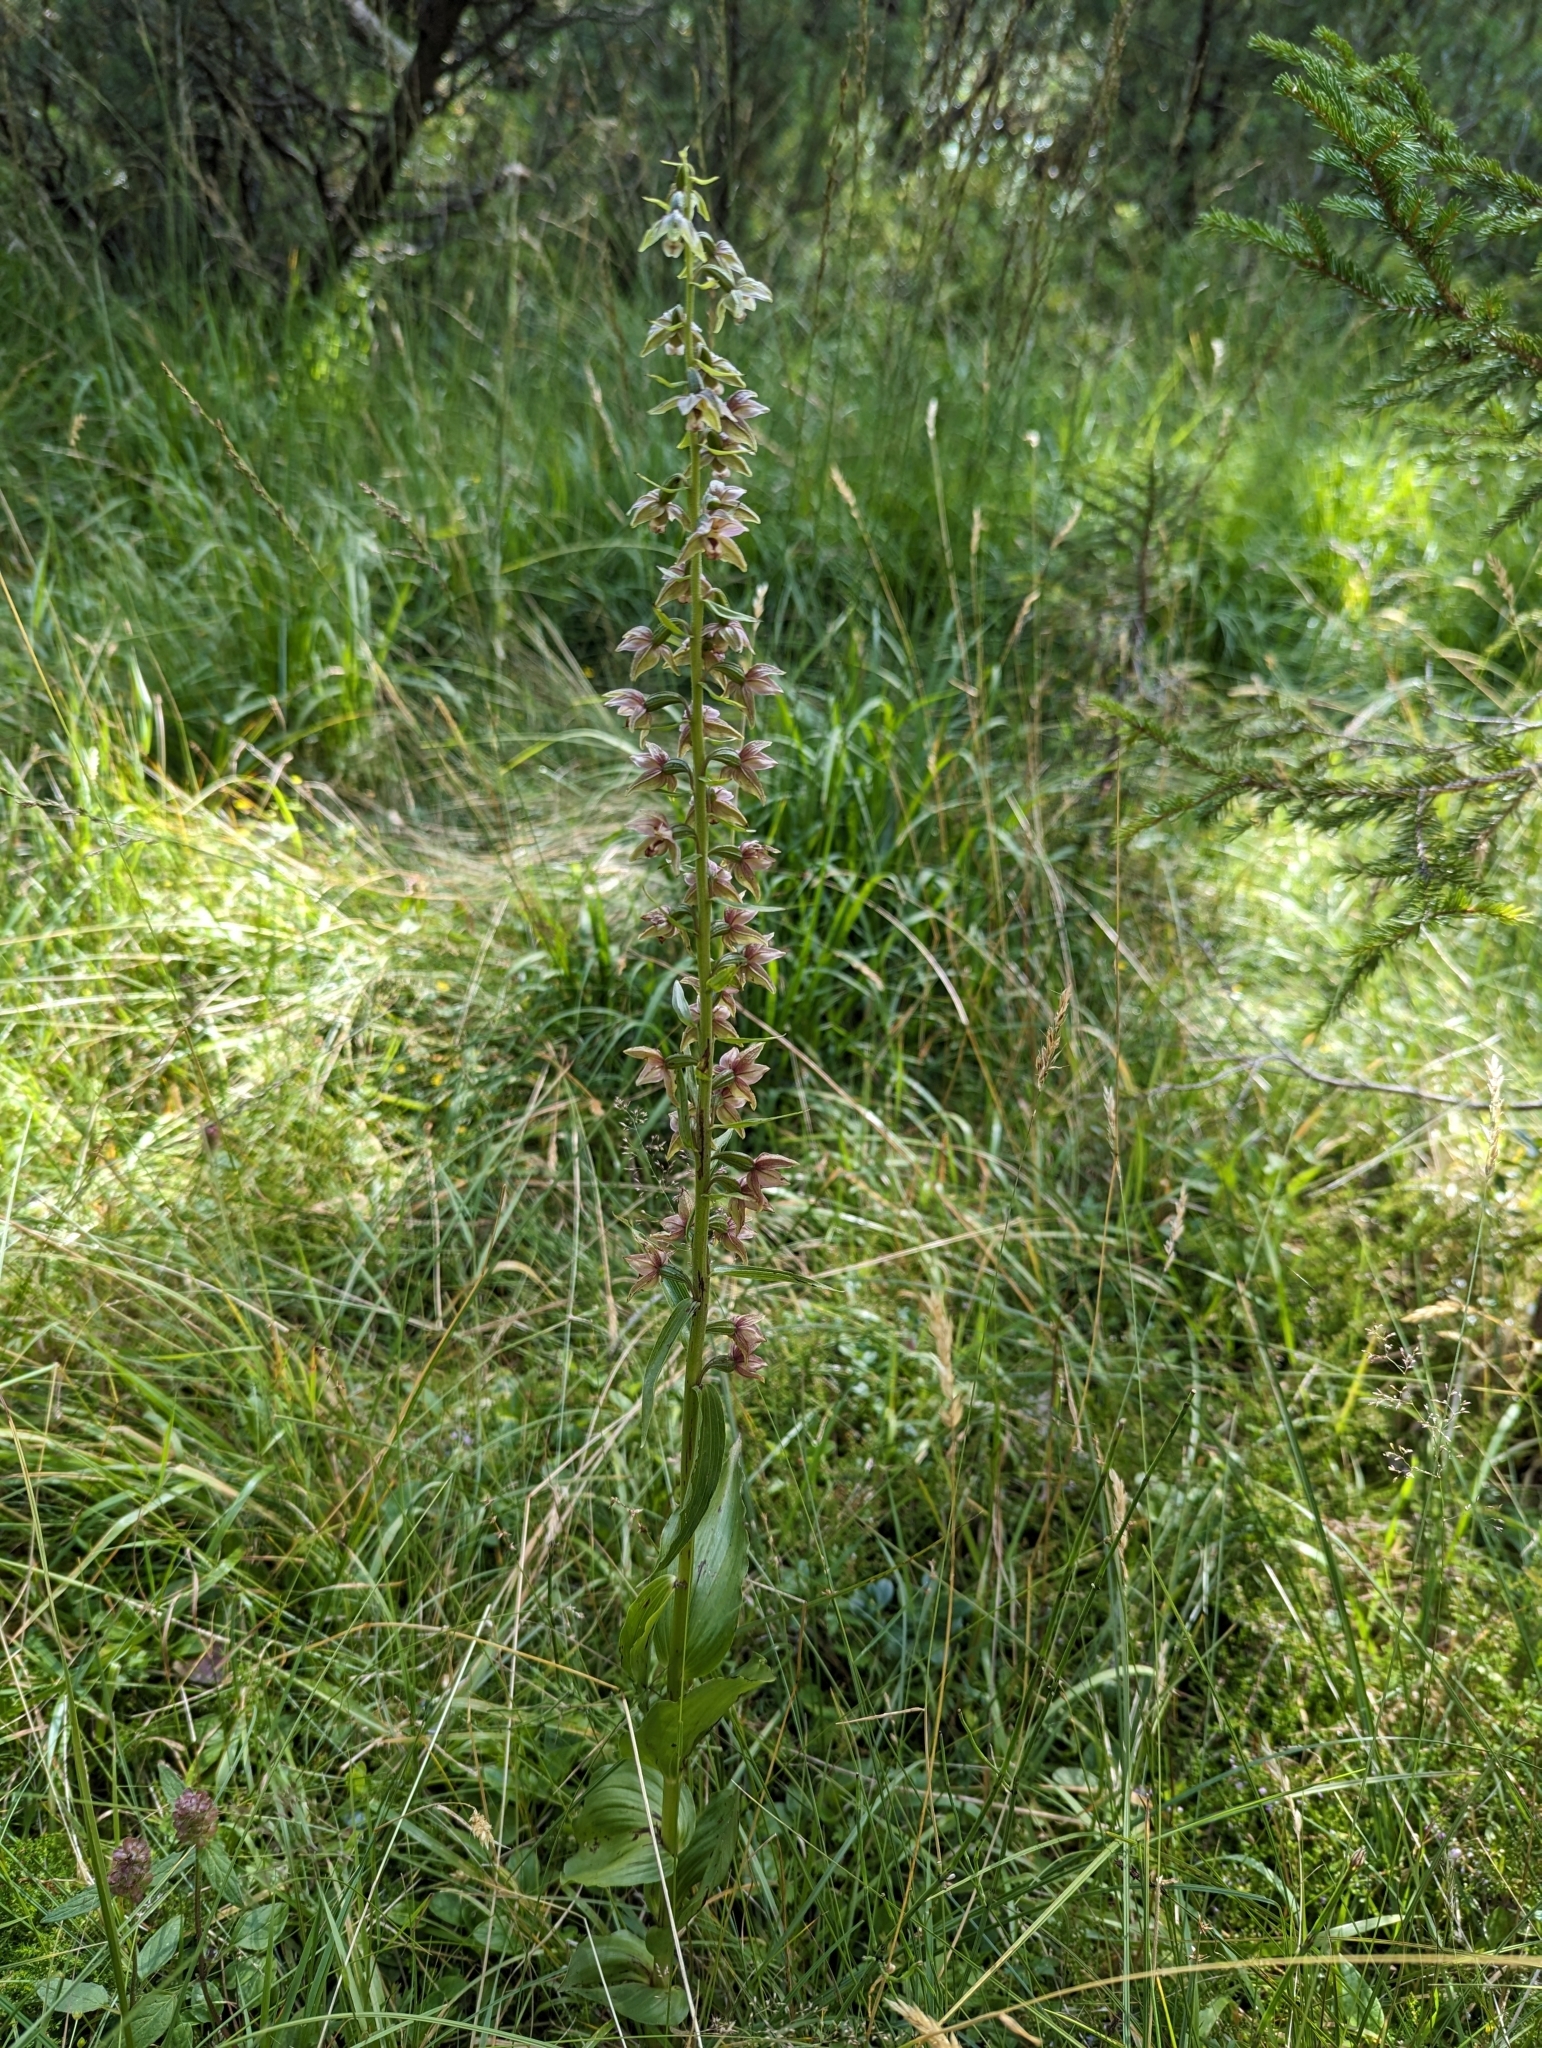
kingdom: Plantae
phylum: Tracheophyta
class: Liliopsida
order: Asparagales
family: Orchidaceae
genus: Epipactis
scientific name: Epipactis helleborine
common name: Broad-leaved helleborine
